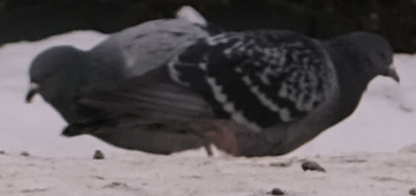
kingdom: Animalia
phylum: Chordata
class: Aves
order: Columbiformes
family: Columbidae
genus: Columba
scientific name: Columba livia
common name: Rock pigeon
